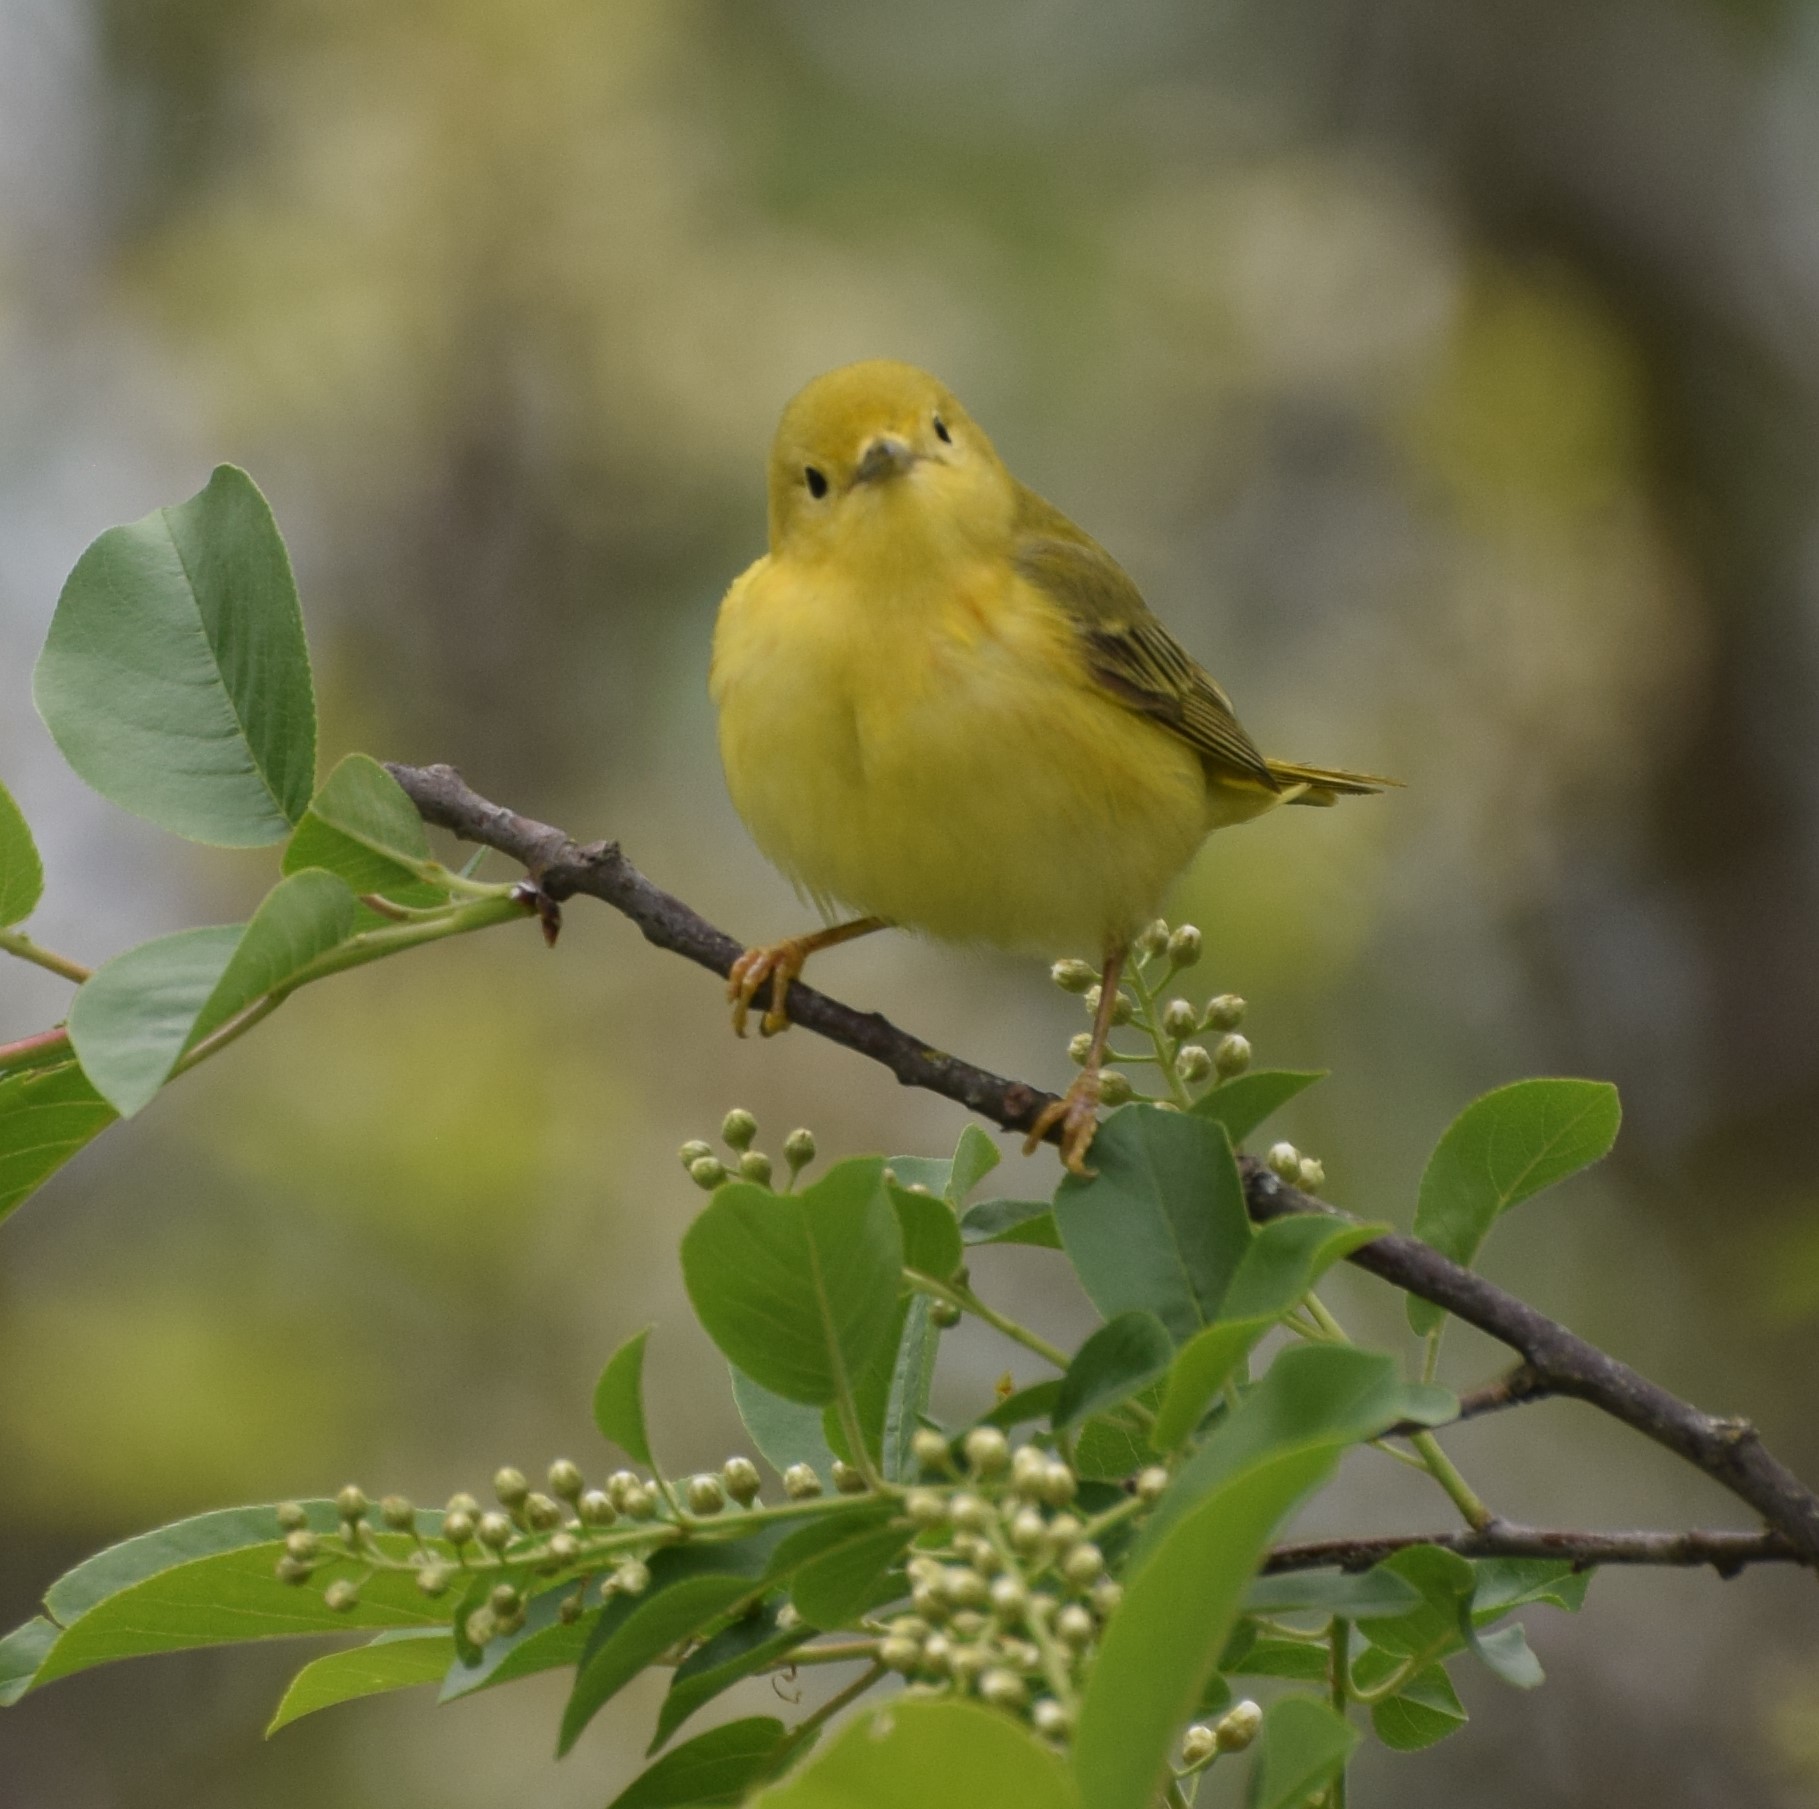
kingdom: Animalia
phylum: Chordata
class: Aves
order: Passeriformes
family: Parulidae
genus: Setophaga
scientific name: Setophaga petechia
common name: Yellow warbler
